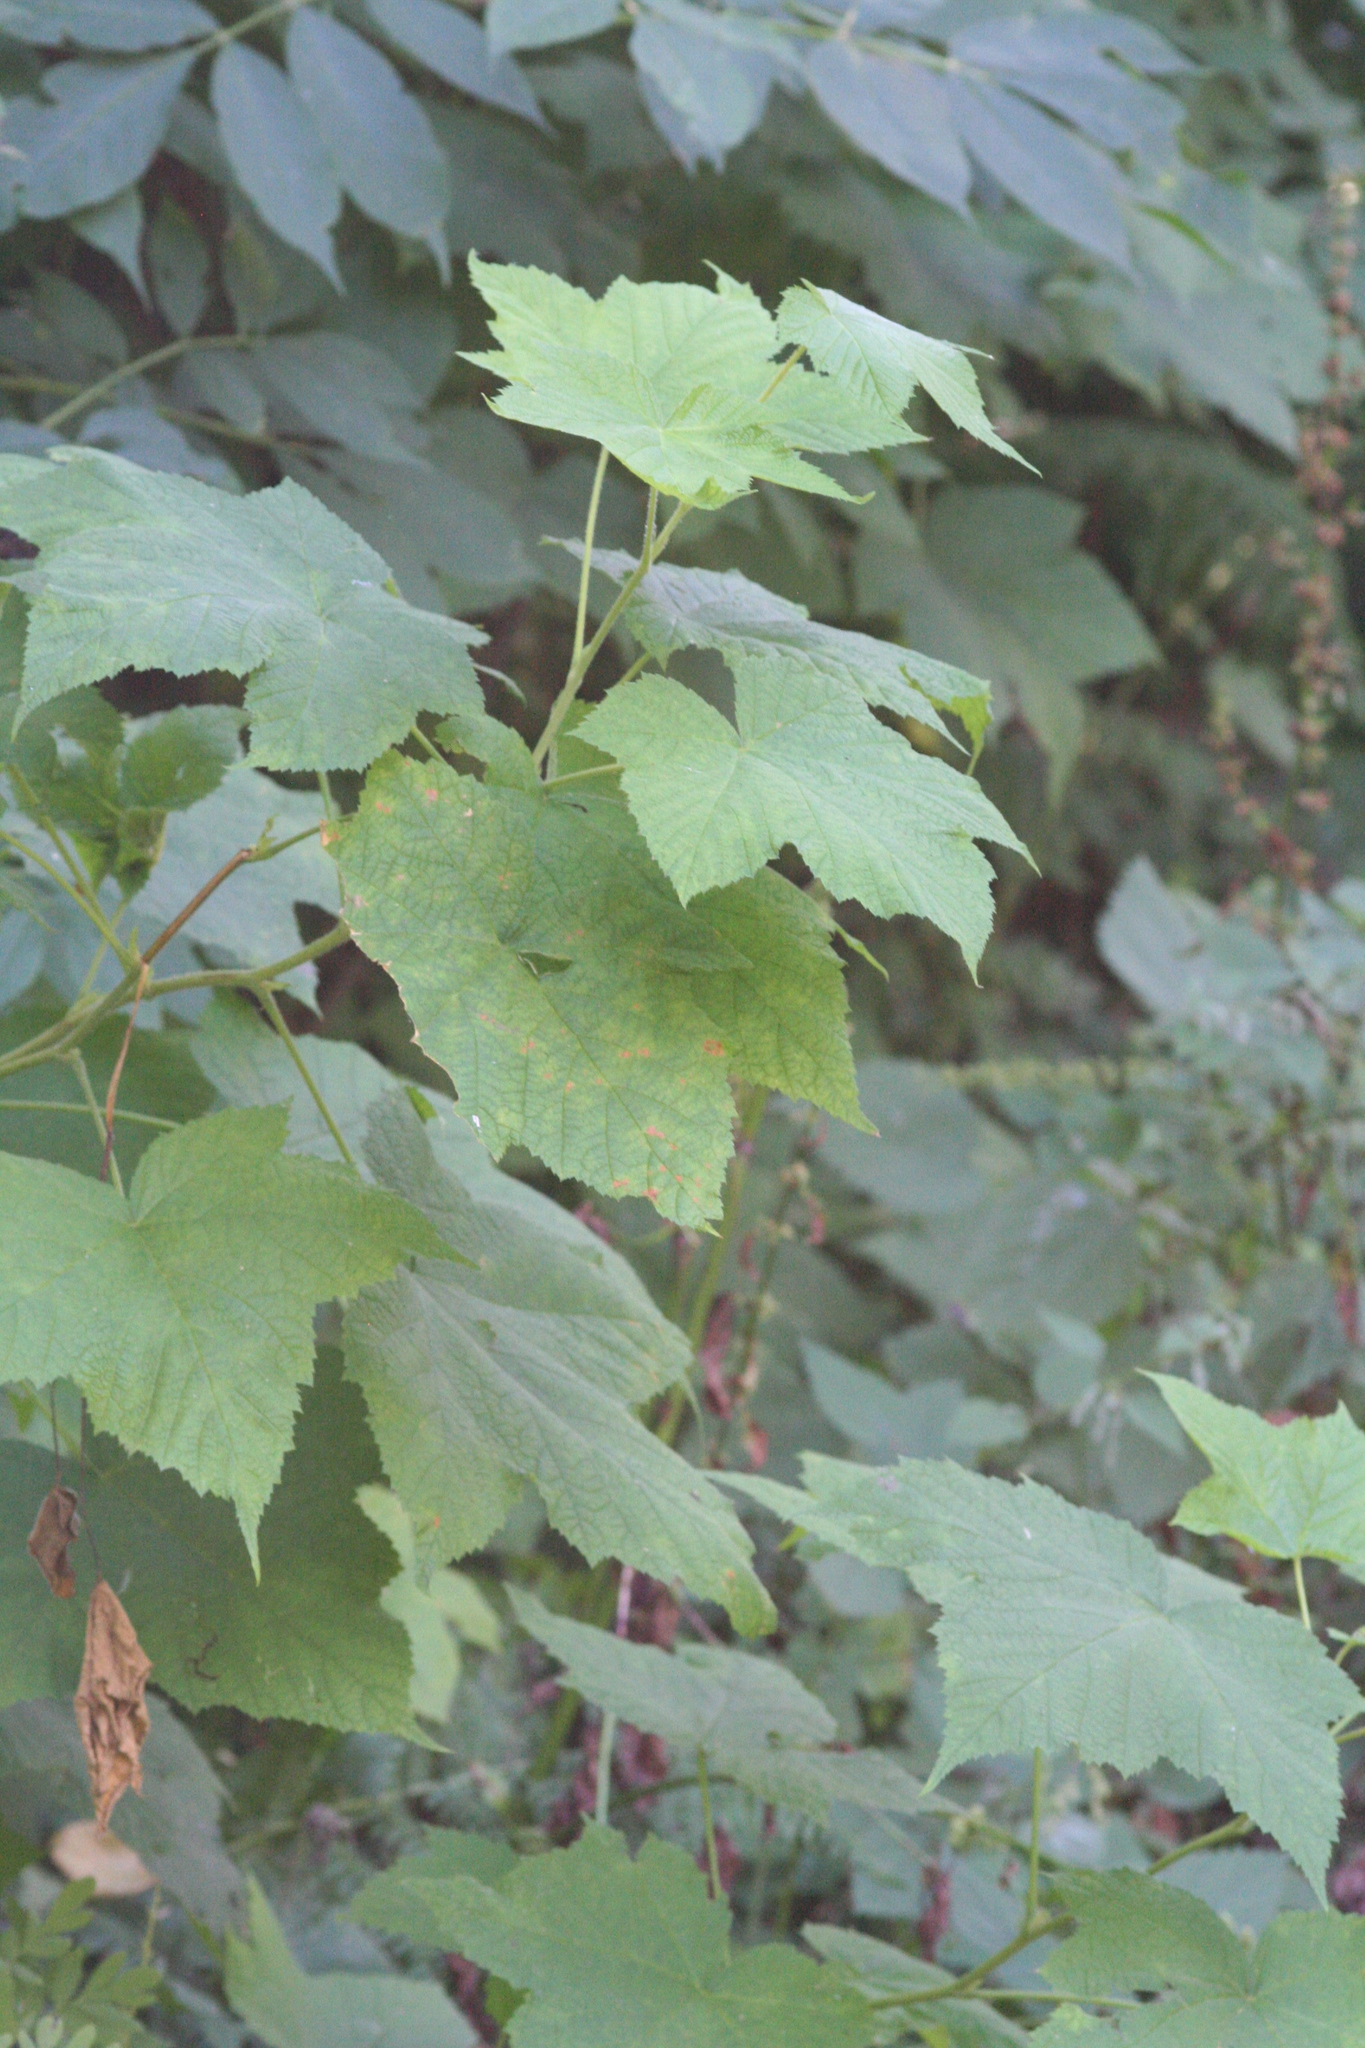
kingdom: Plantae
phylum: Tracheophyta
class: Magnoliopsida
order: Rosales
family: Rosaceae
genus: Rubus
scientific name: Rubus parviflorus
